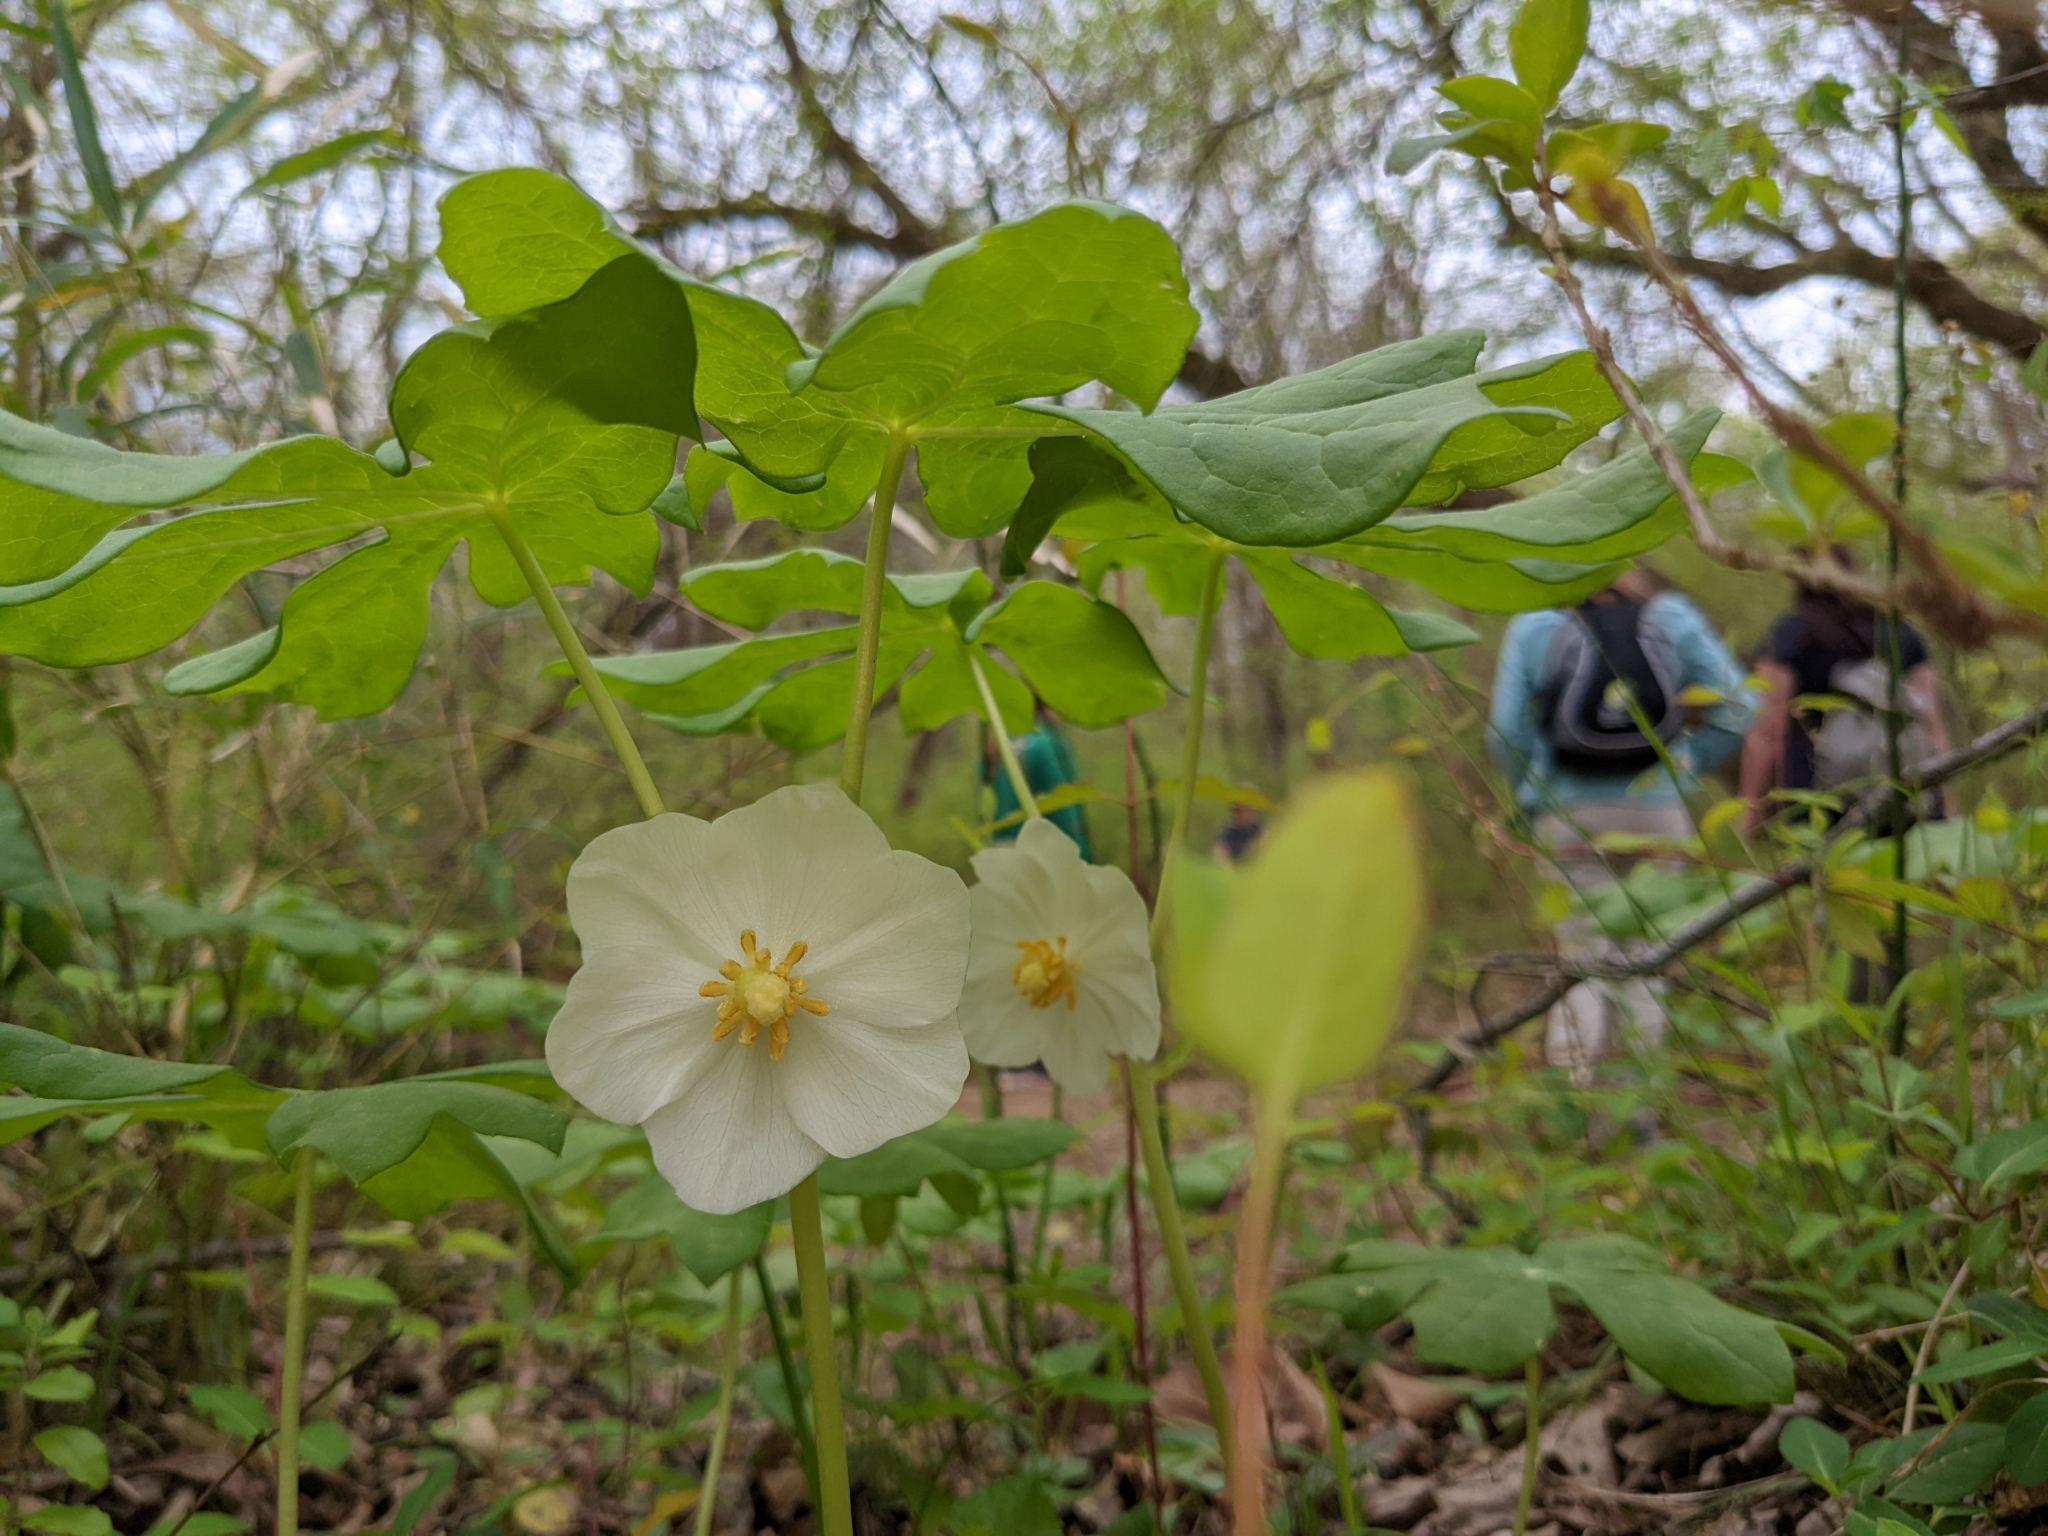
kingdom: Plantae
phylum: Tracheophyta
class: Magnoliopsida
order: Ranunculales
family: Berberidaceae
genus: Podophyllum
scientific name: Podophyllum peltatum
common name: Wild mandrake
